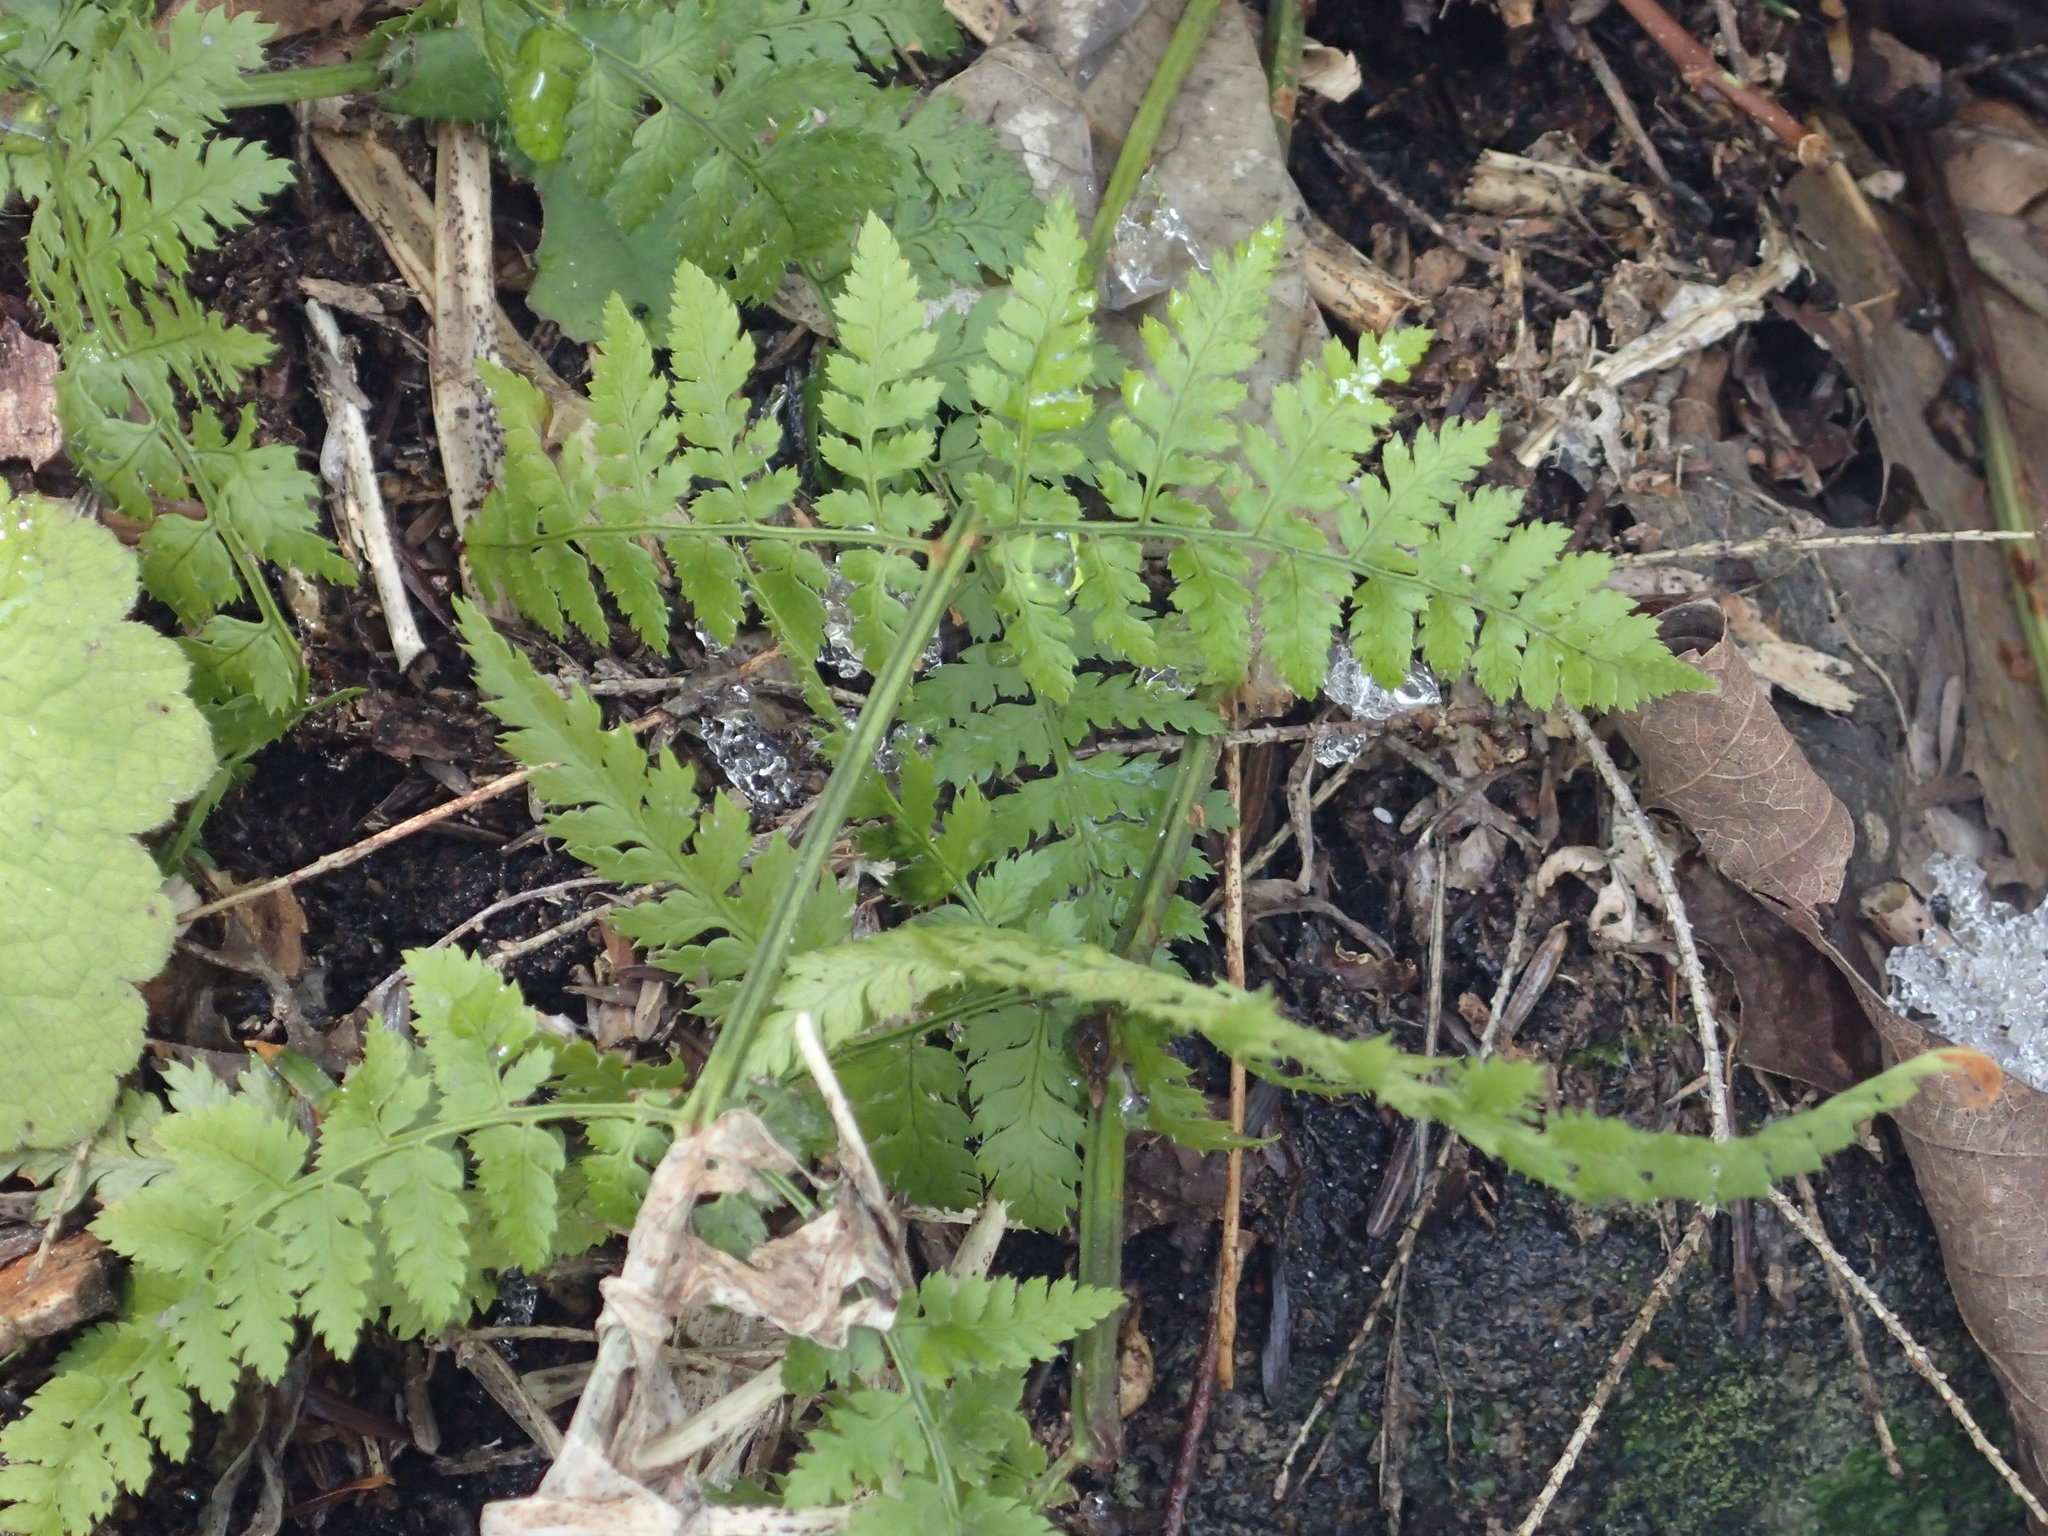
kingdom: Plantae
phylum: Tracheophyta
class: Polypodiopsida
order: Polypodiales
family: Dryopteridaceae
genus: Dryopteris
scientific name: Dryopteris intermedia
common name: Evergreen wood fern
